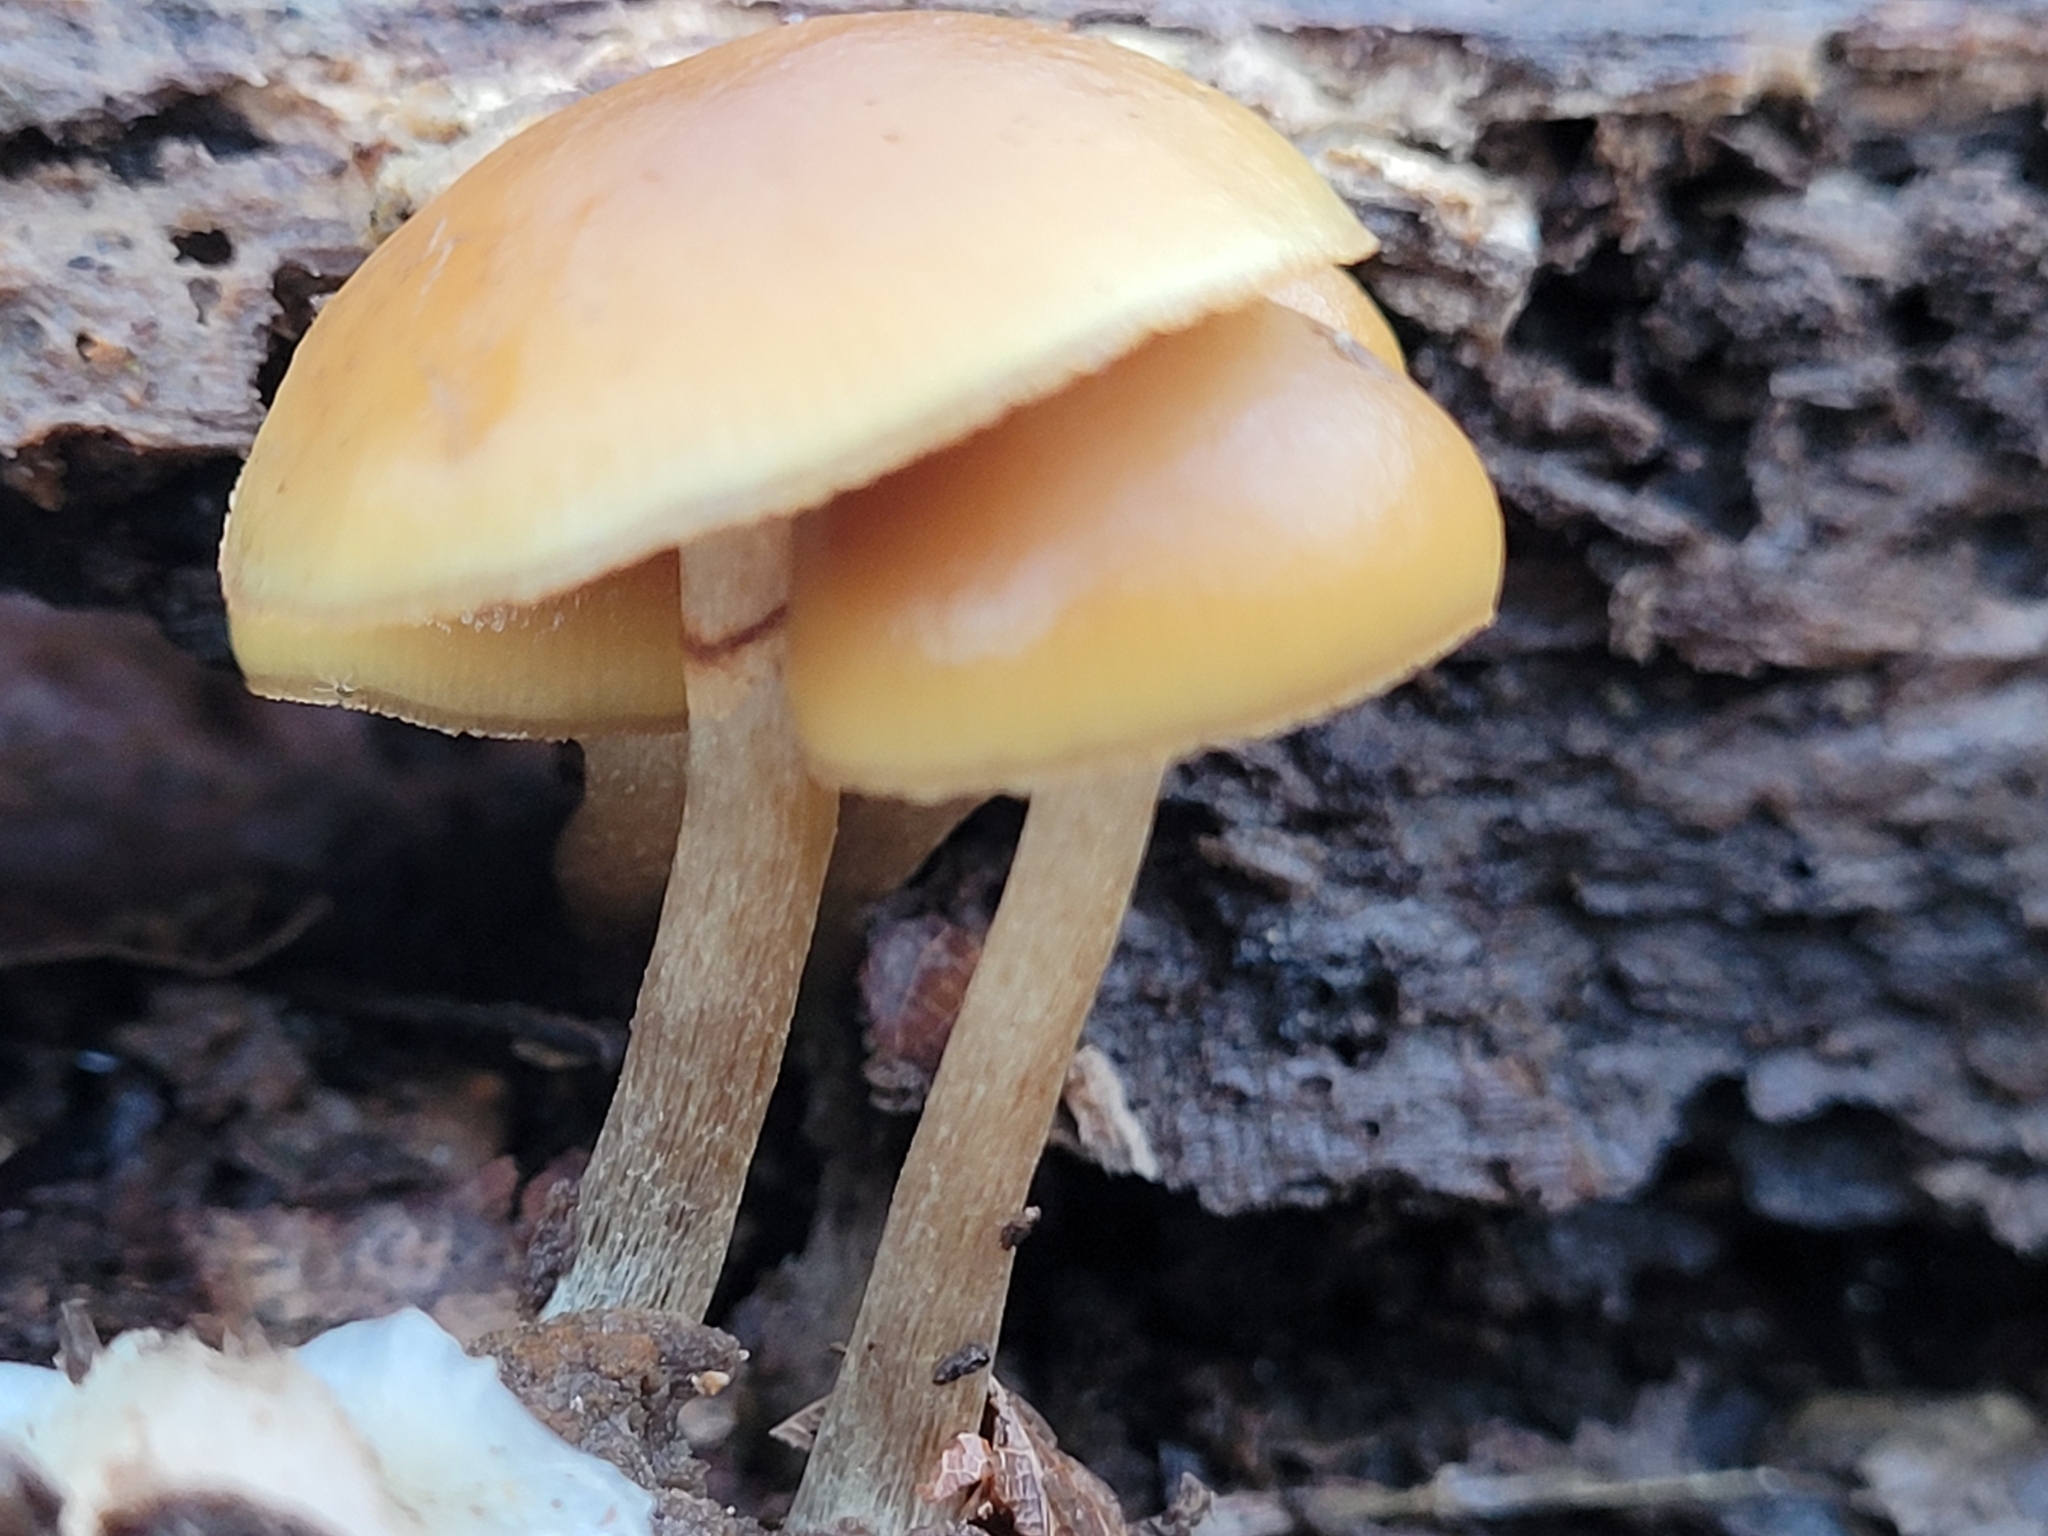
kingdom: Fungi
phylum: Basidiomycota
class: Agaricomycetes
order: Agaricales
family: Hymenogastraceae
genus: Galerina
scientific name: Galerina marginata
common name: Funeral bell
